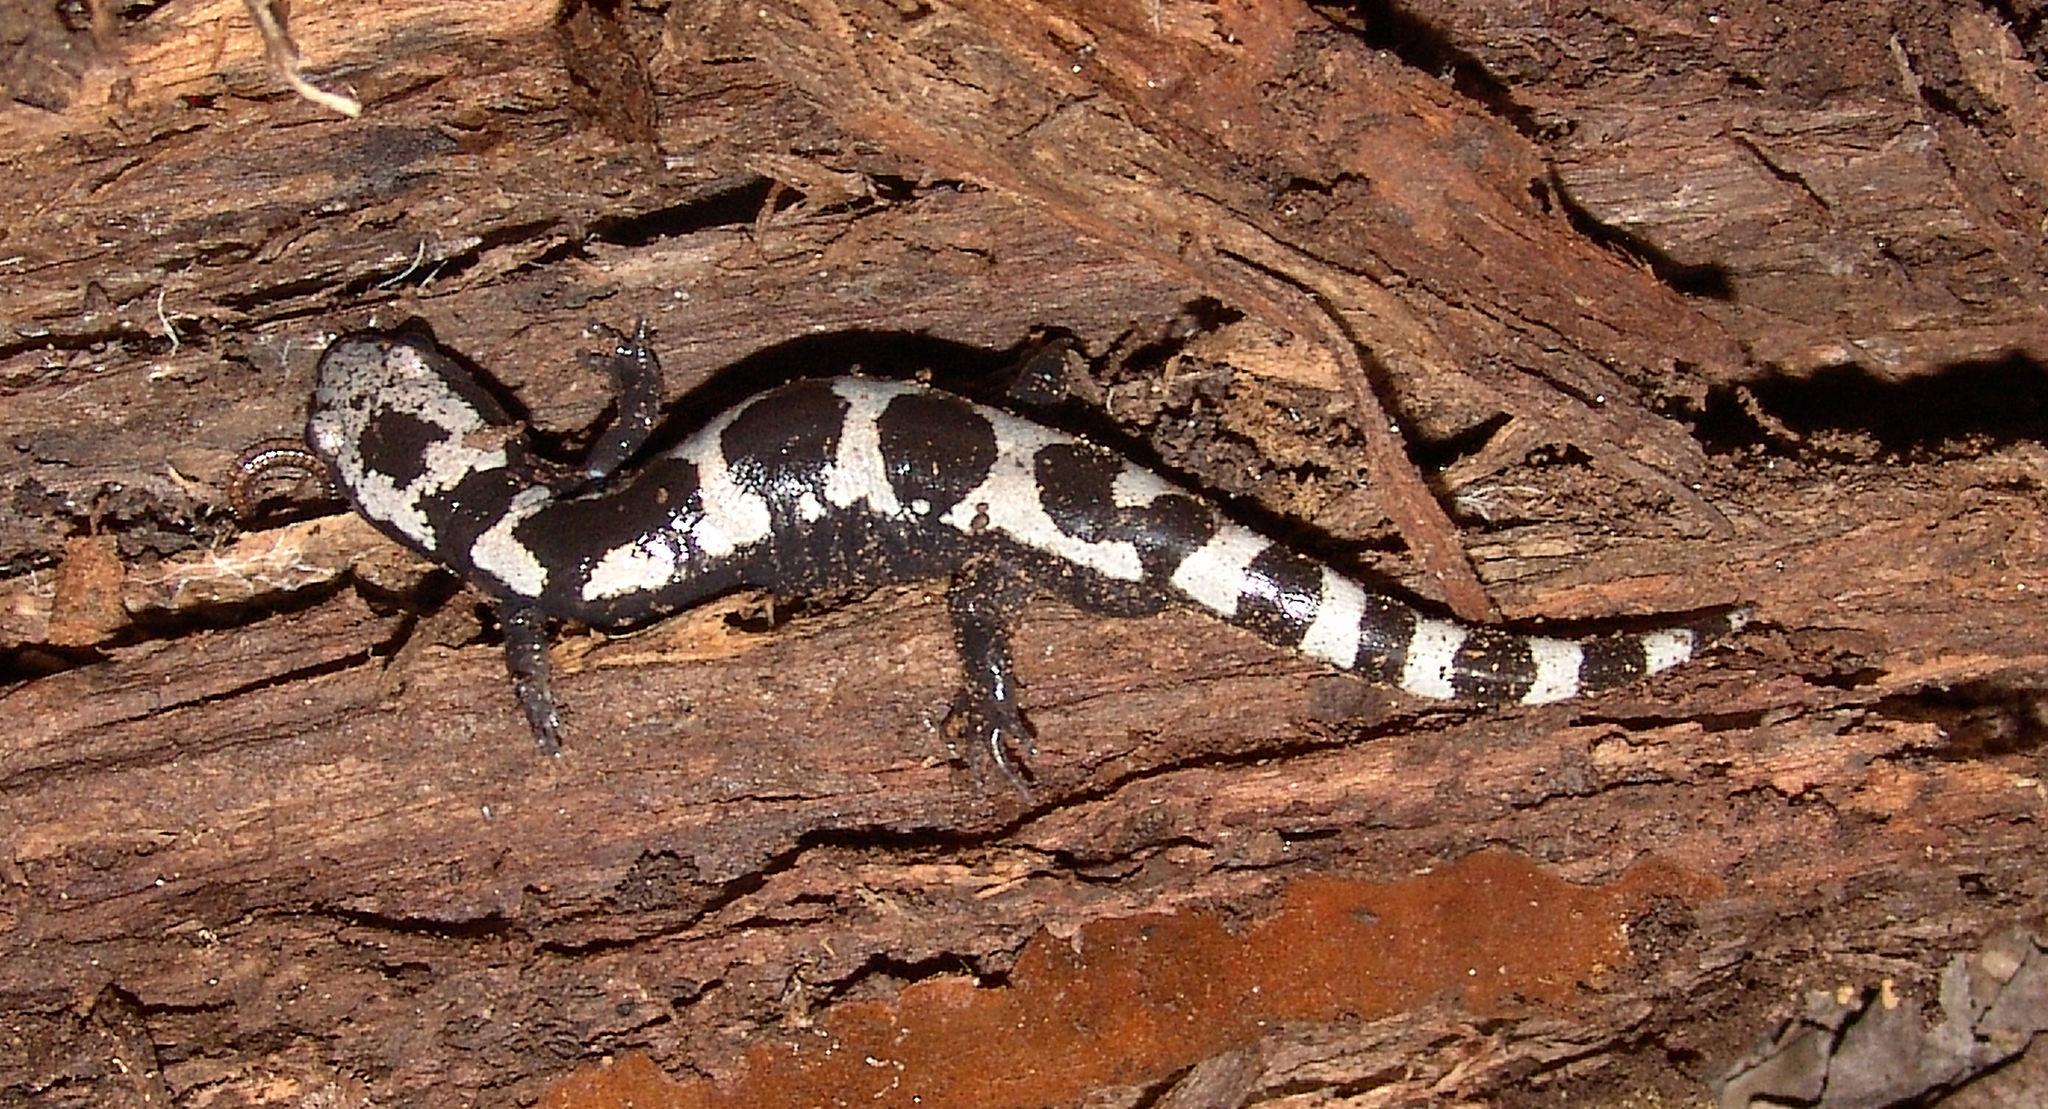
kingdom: Animalia
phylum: Chordata
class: Amphibia
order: Caudata
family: Ambystomatidae
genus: Ambystoma
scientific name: Ambystoma opacum
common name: Marbled salamander
